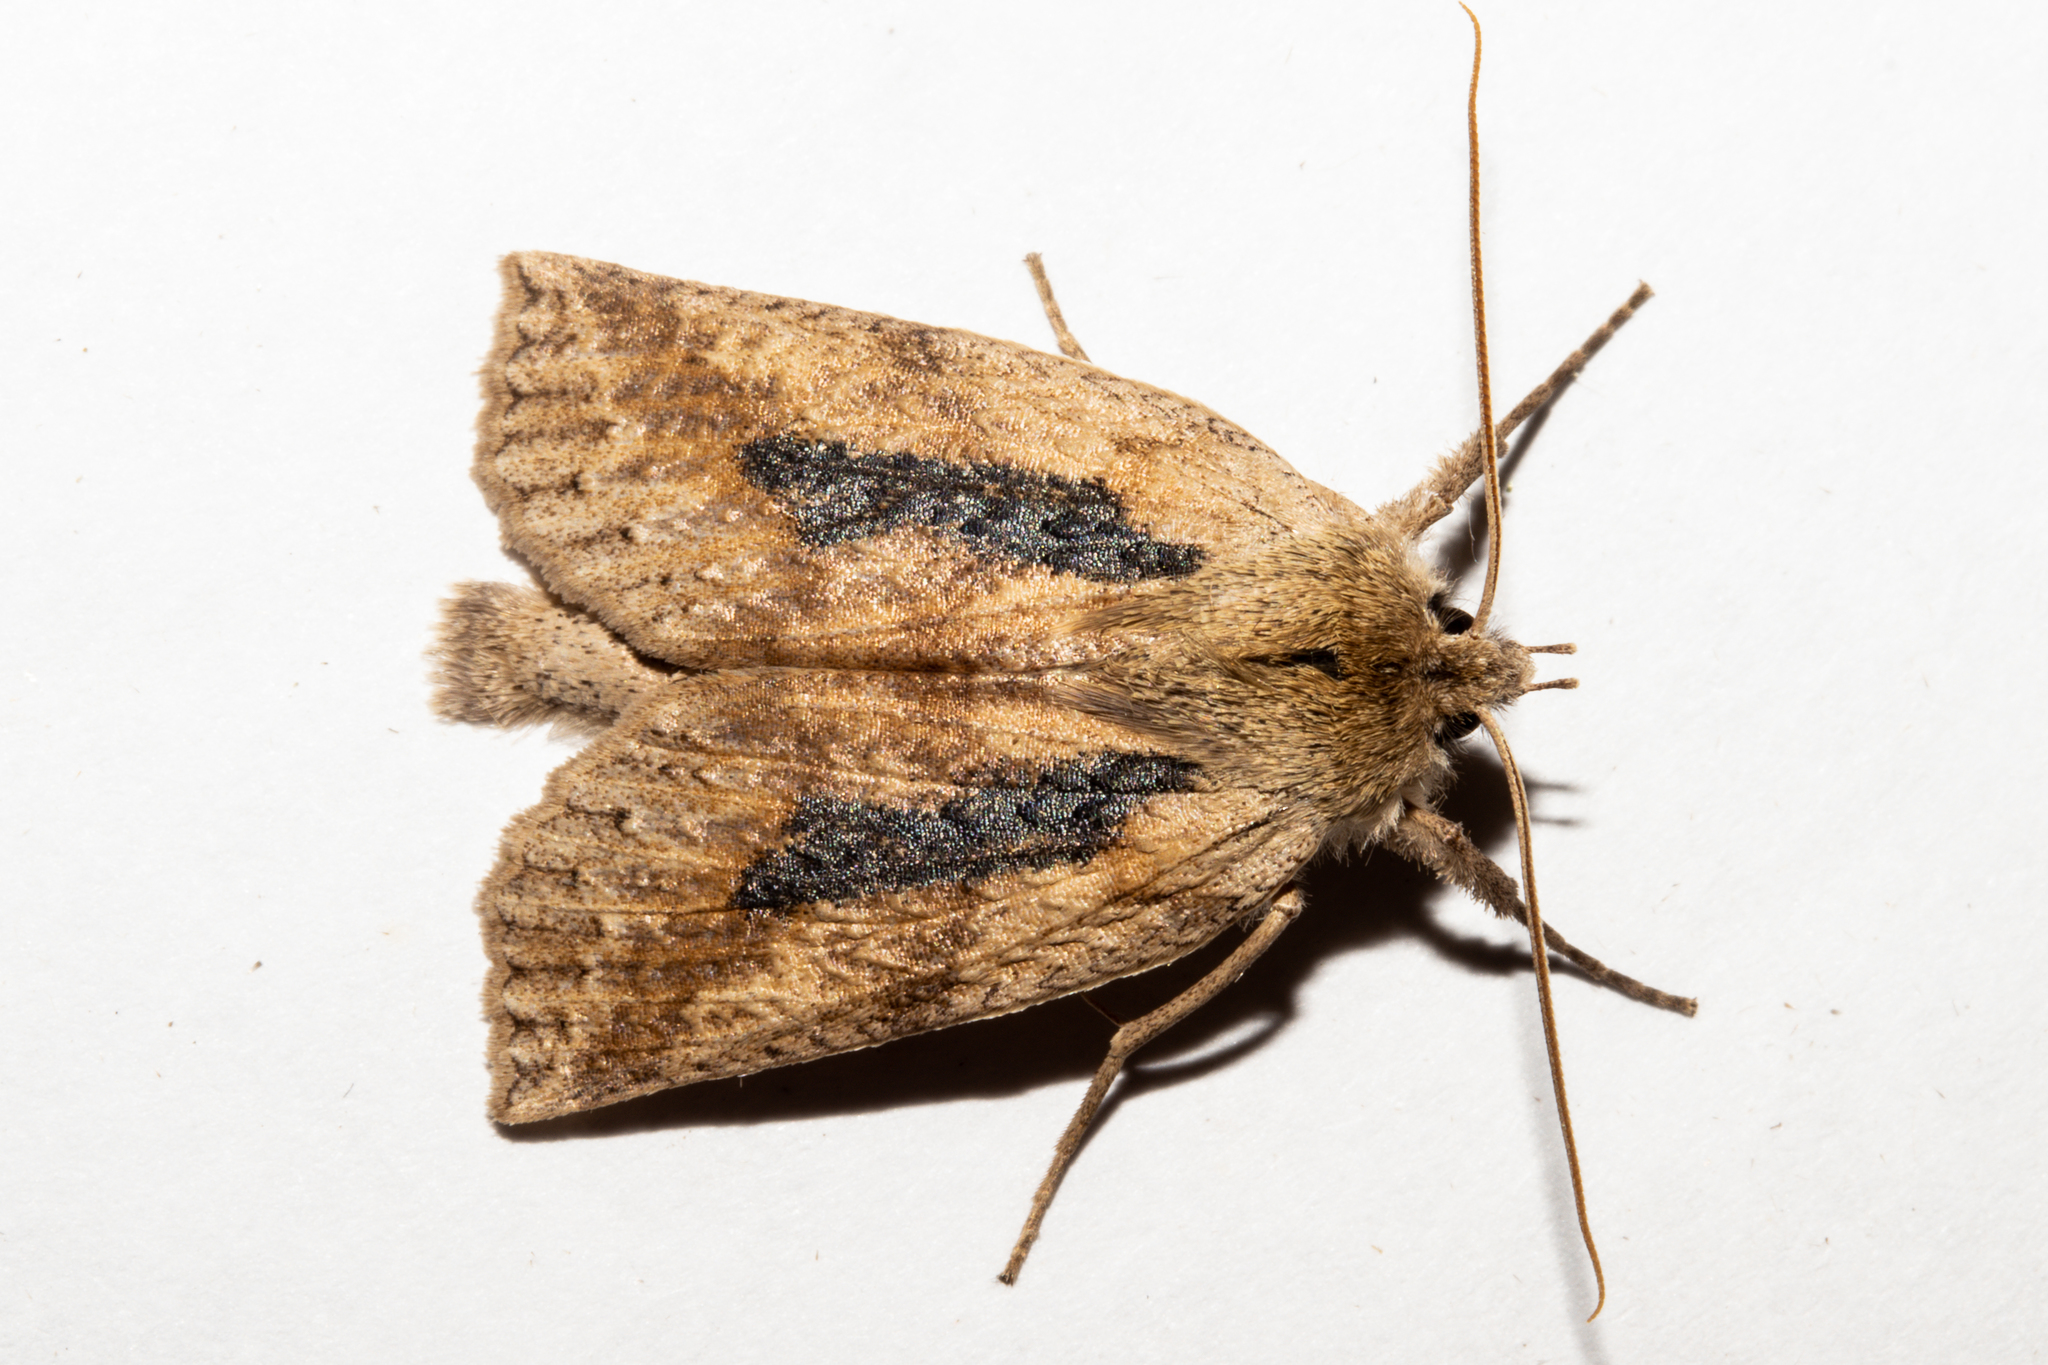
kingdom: Animalia
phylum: Arthropoda
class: Insecta
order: Lepidoptera
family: Geometridae
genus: Declana
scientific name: Declana leptomera
